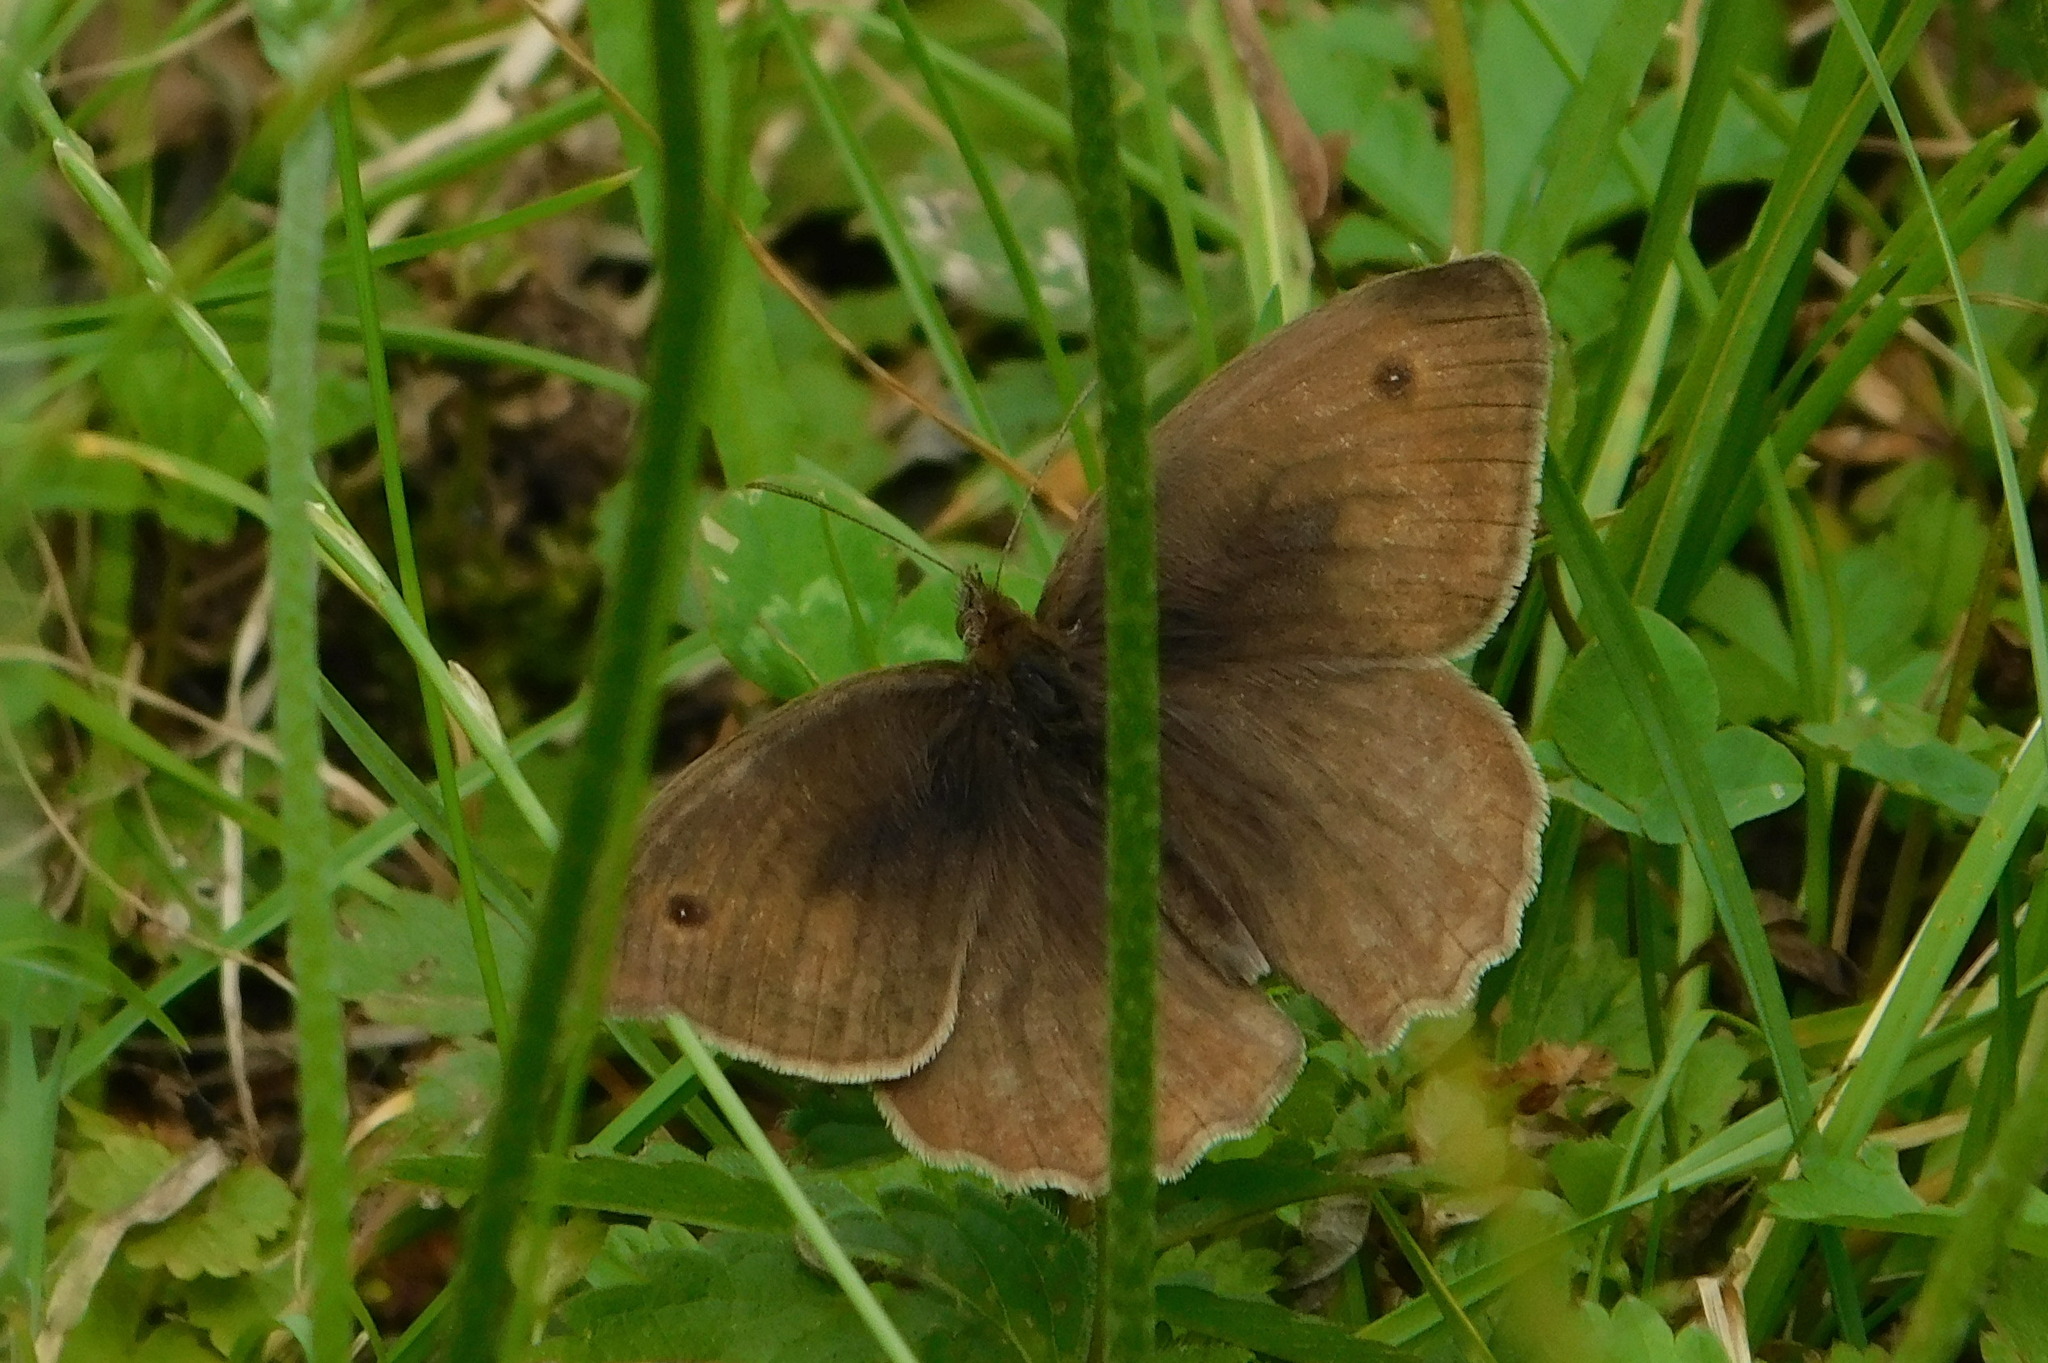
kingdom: Animalia
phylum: Arthropoda
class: Insecta
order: Lepidoptera
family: Nymphalidae
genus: Maniola
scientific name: Maniola jurtina
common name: Meadow brown
